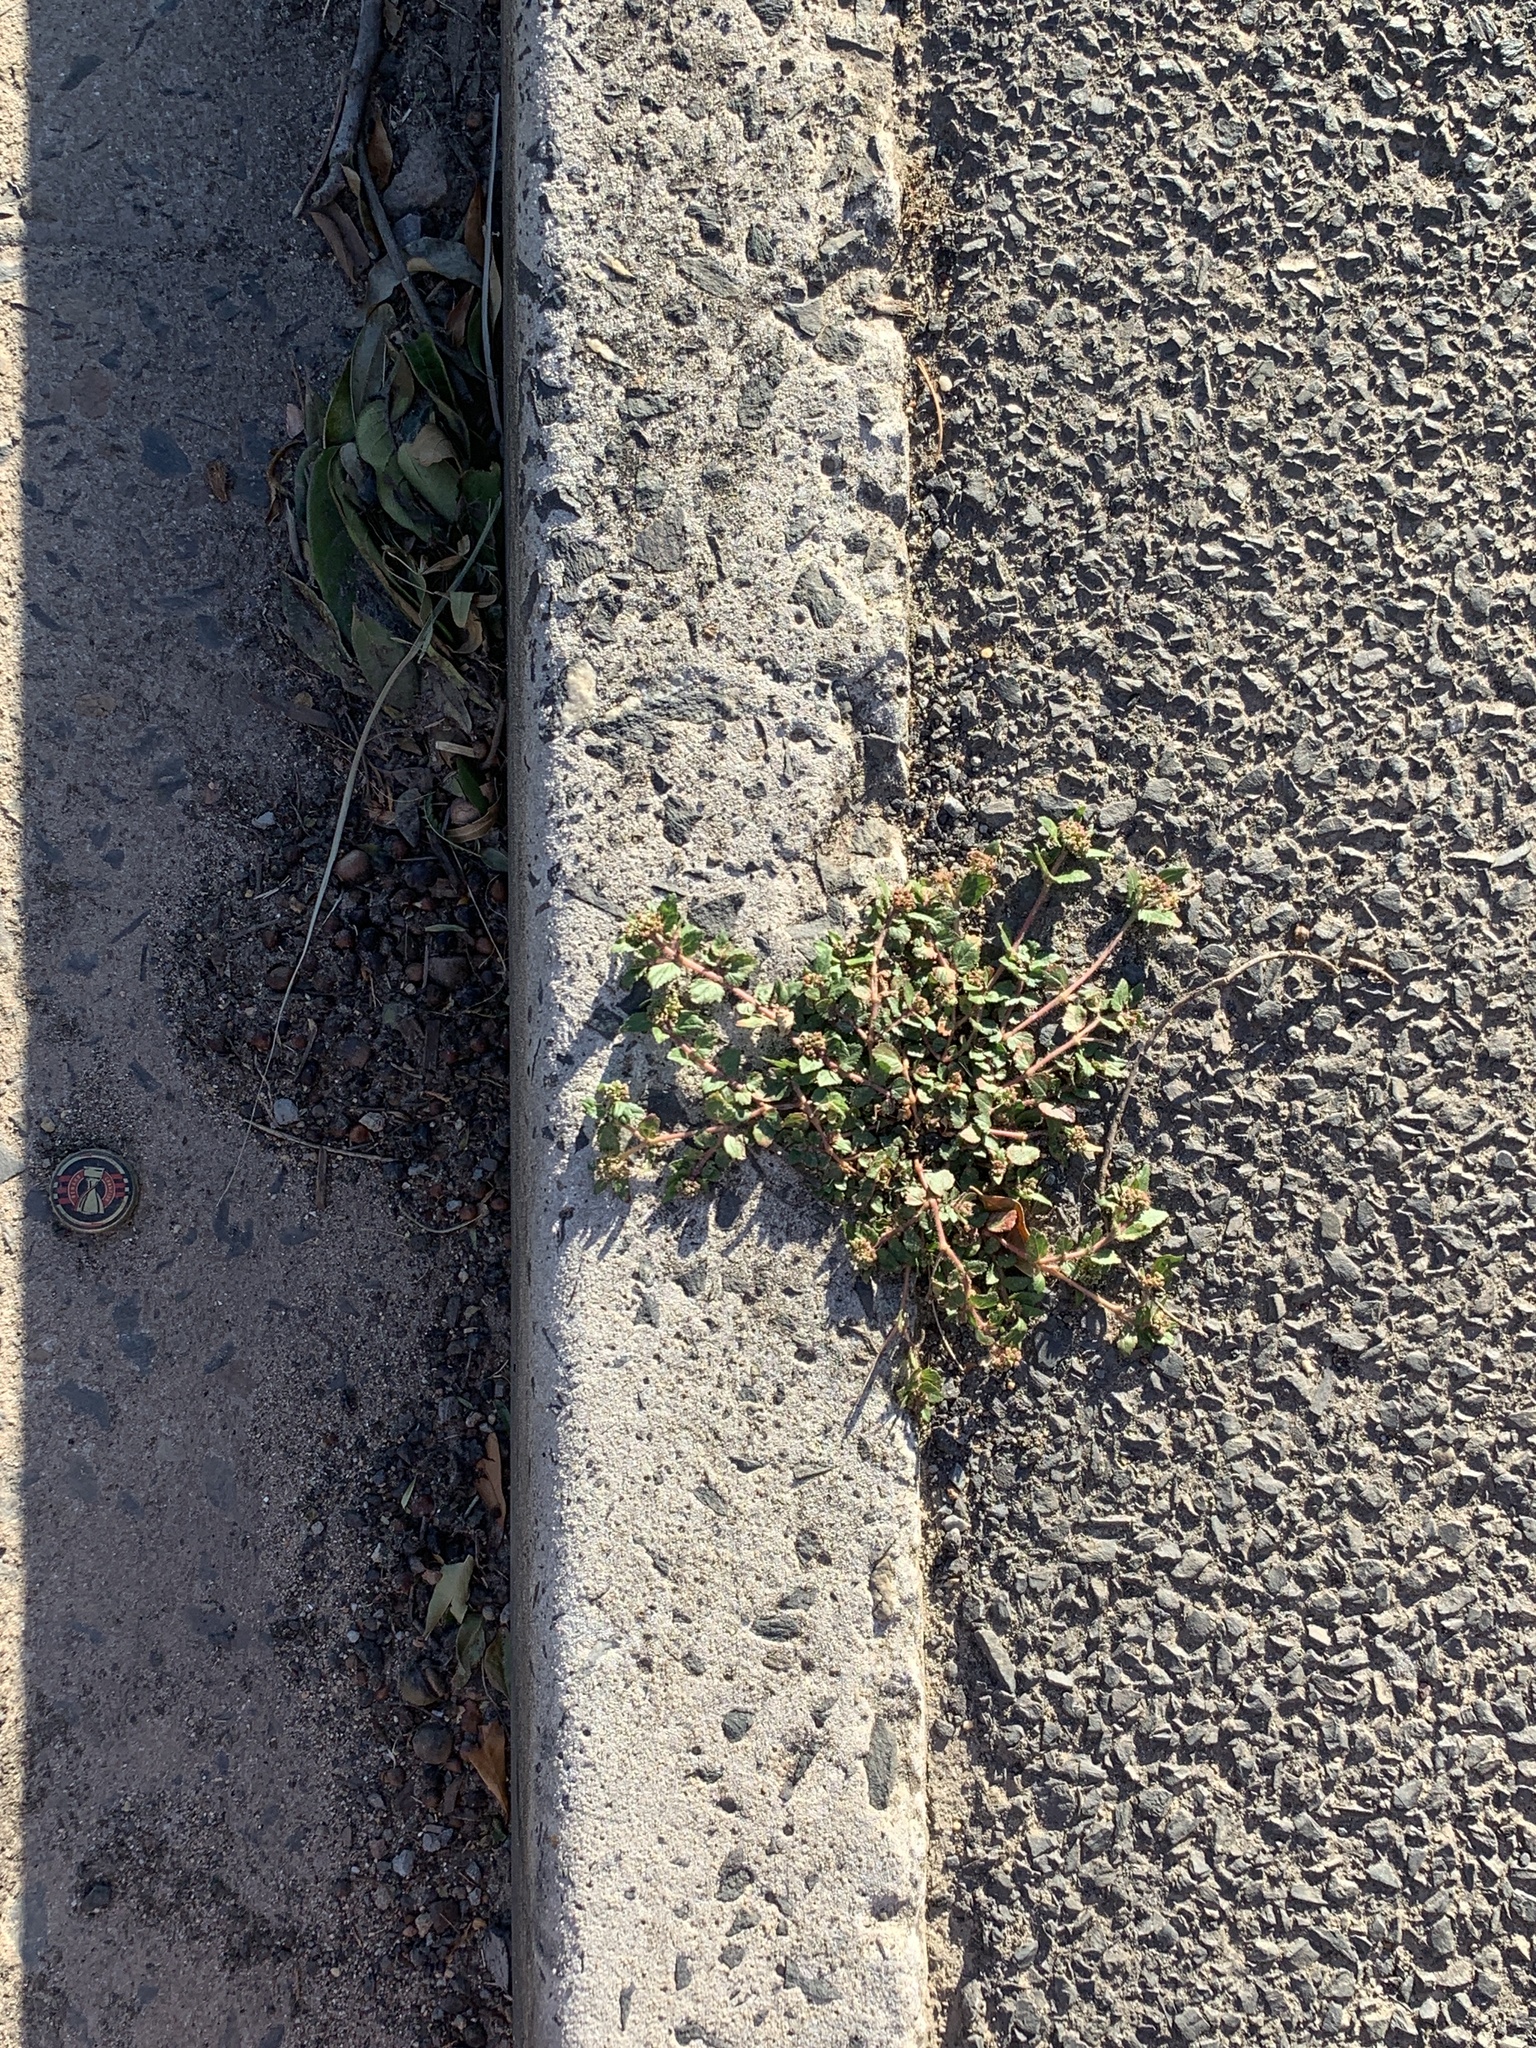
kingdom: Plantae
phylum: Tracheophyta
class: Magnoliopsida
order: Malpighiales
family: Euphorbiaceae
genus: Euphorbia
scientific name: Euphorbia ophthalmica
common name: Florida hammock sandmat
